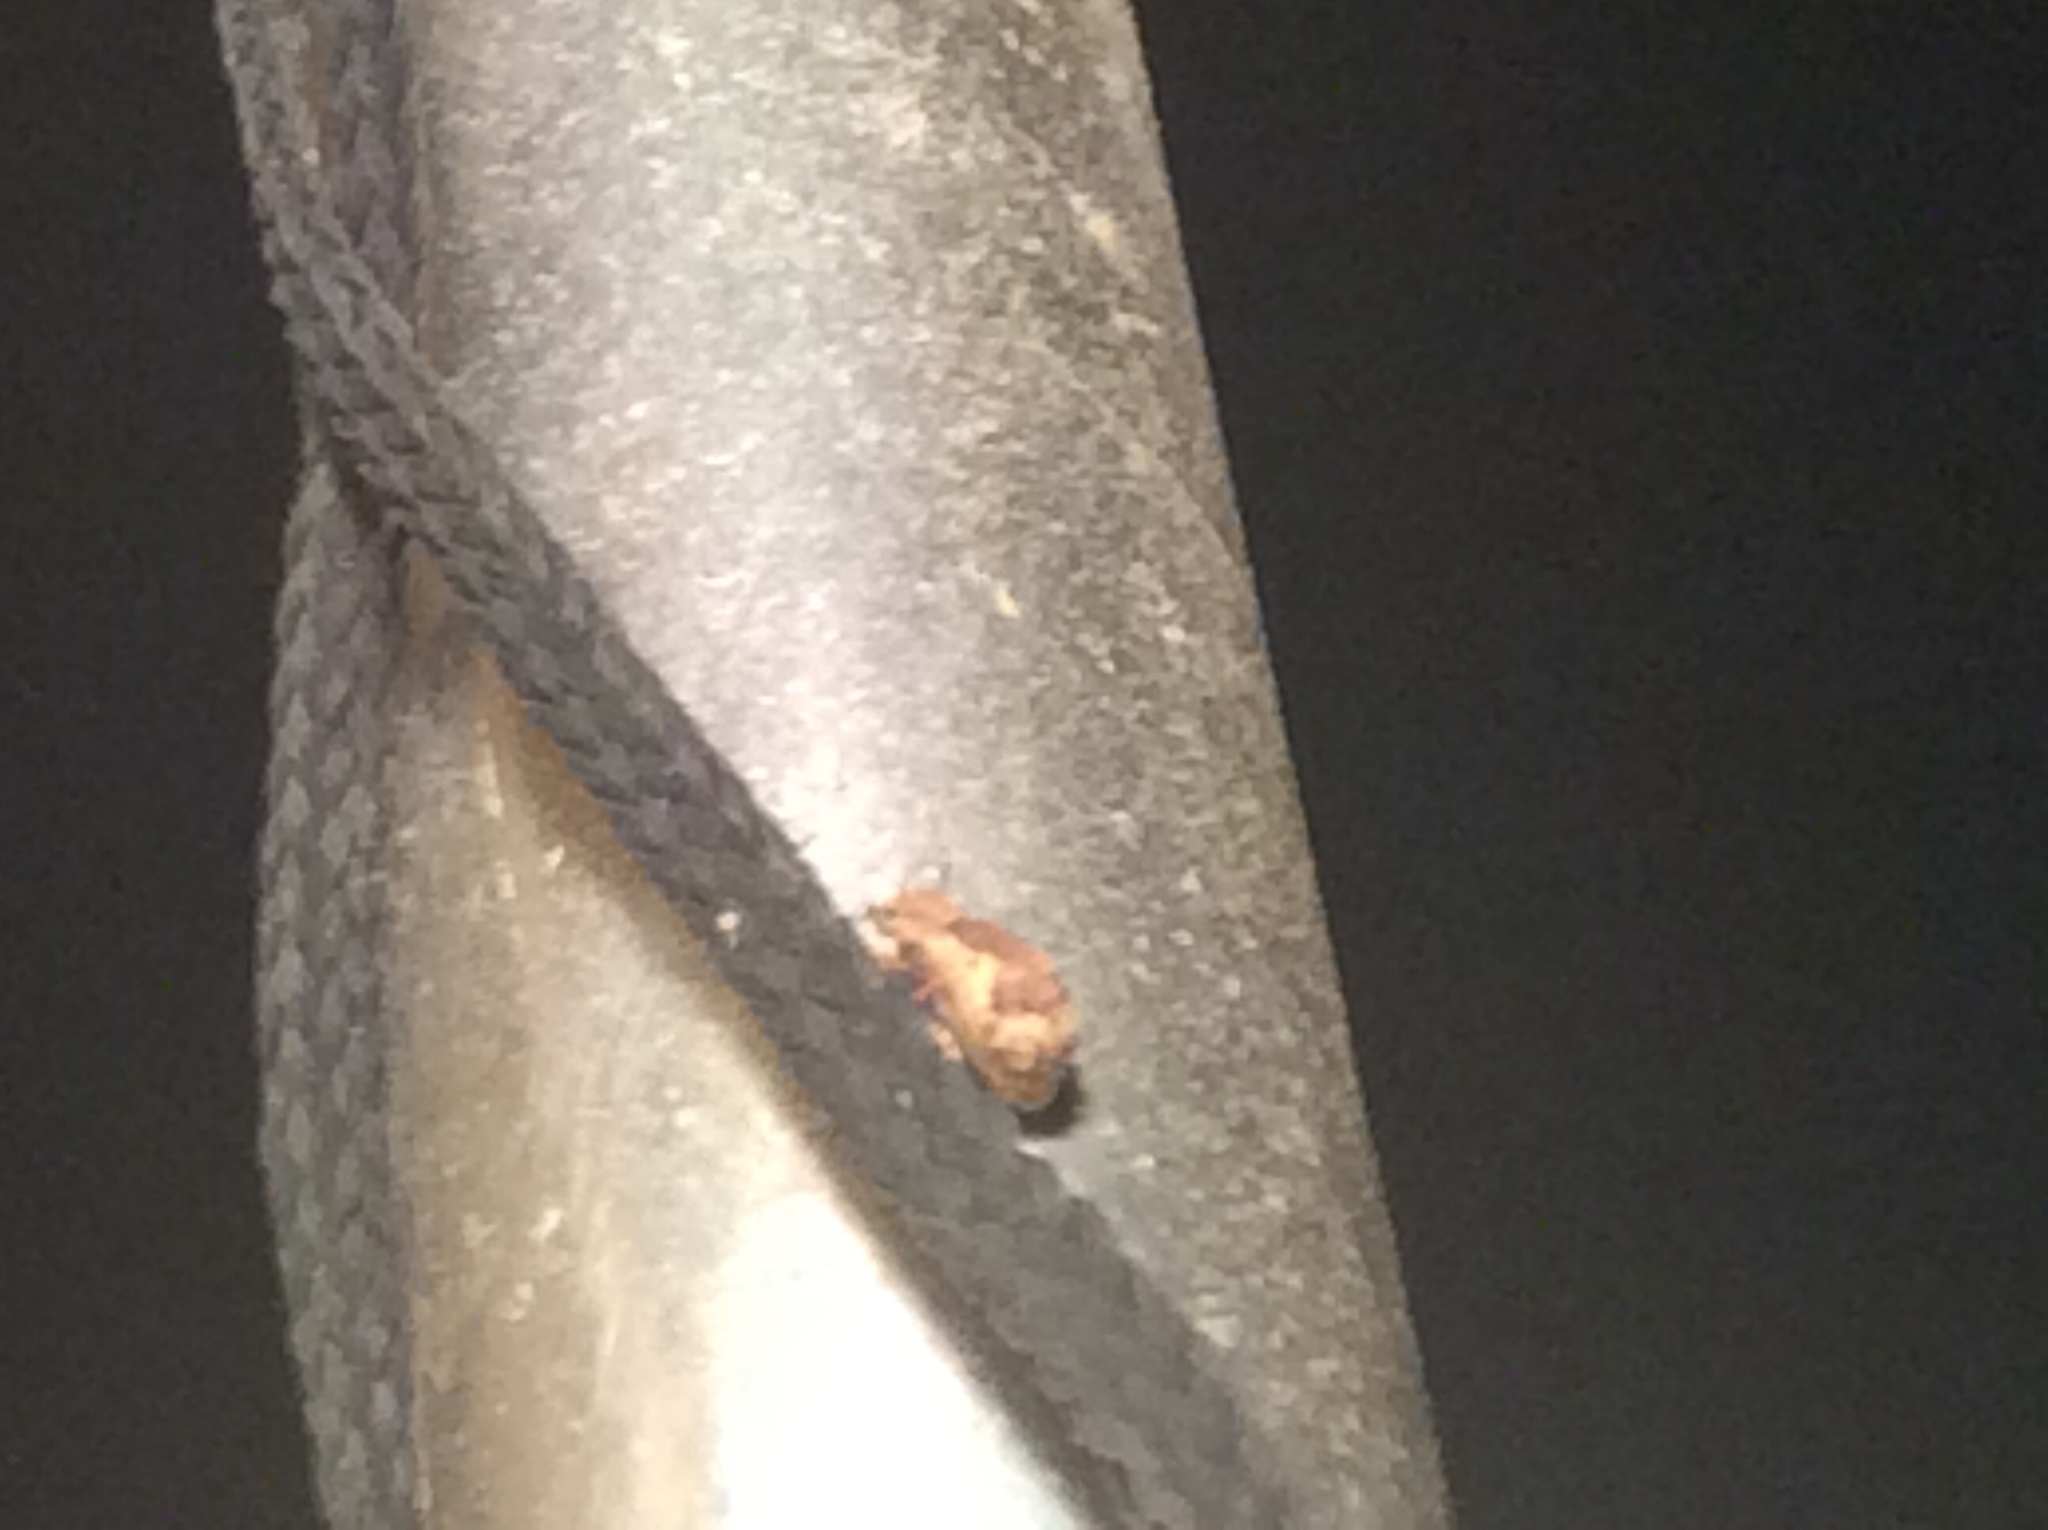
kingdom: Animalia
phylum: Arthropoda
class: Insecta
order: Coleoptera
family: Curculionidae
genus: Pseudoedophrys
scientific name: Pseudoedophrys hilleri
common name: Weevil
